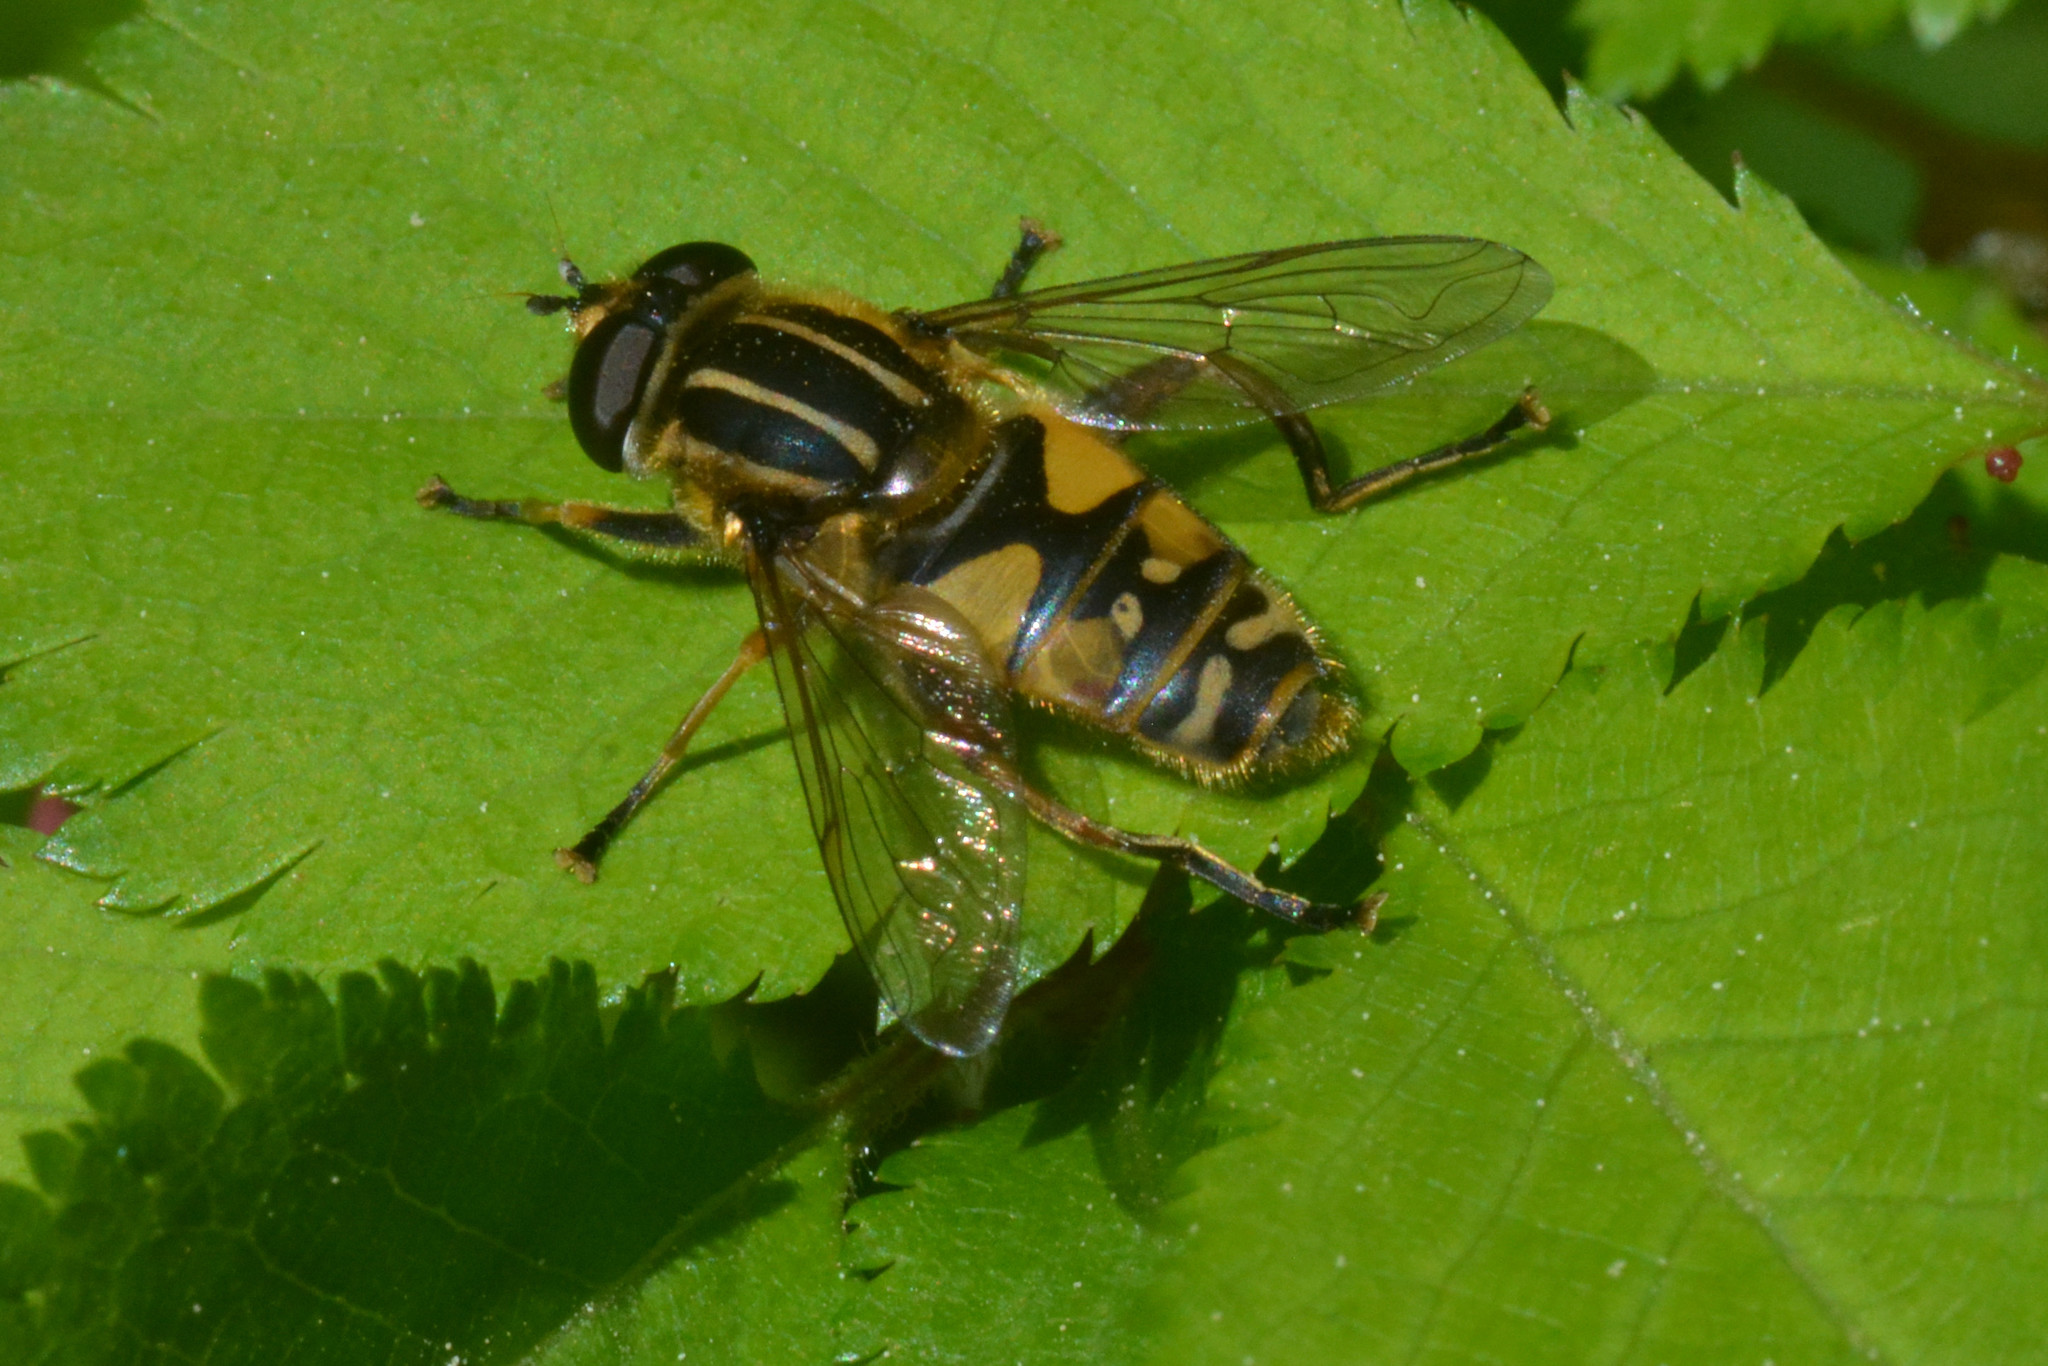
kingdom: Animalia
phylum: Arthropoda
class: Insecta
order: Diptera
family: Syrphidae
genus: Helophilus
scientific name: Helophilus pendulus
